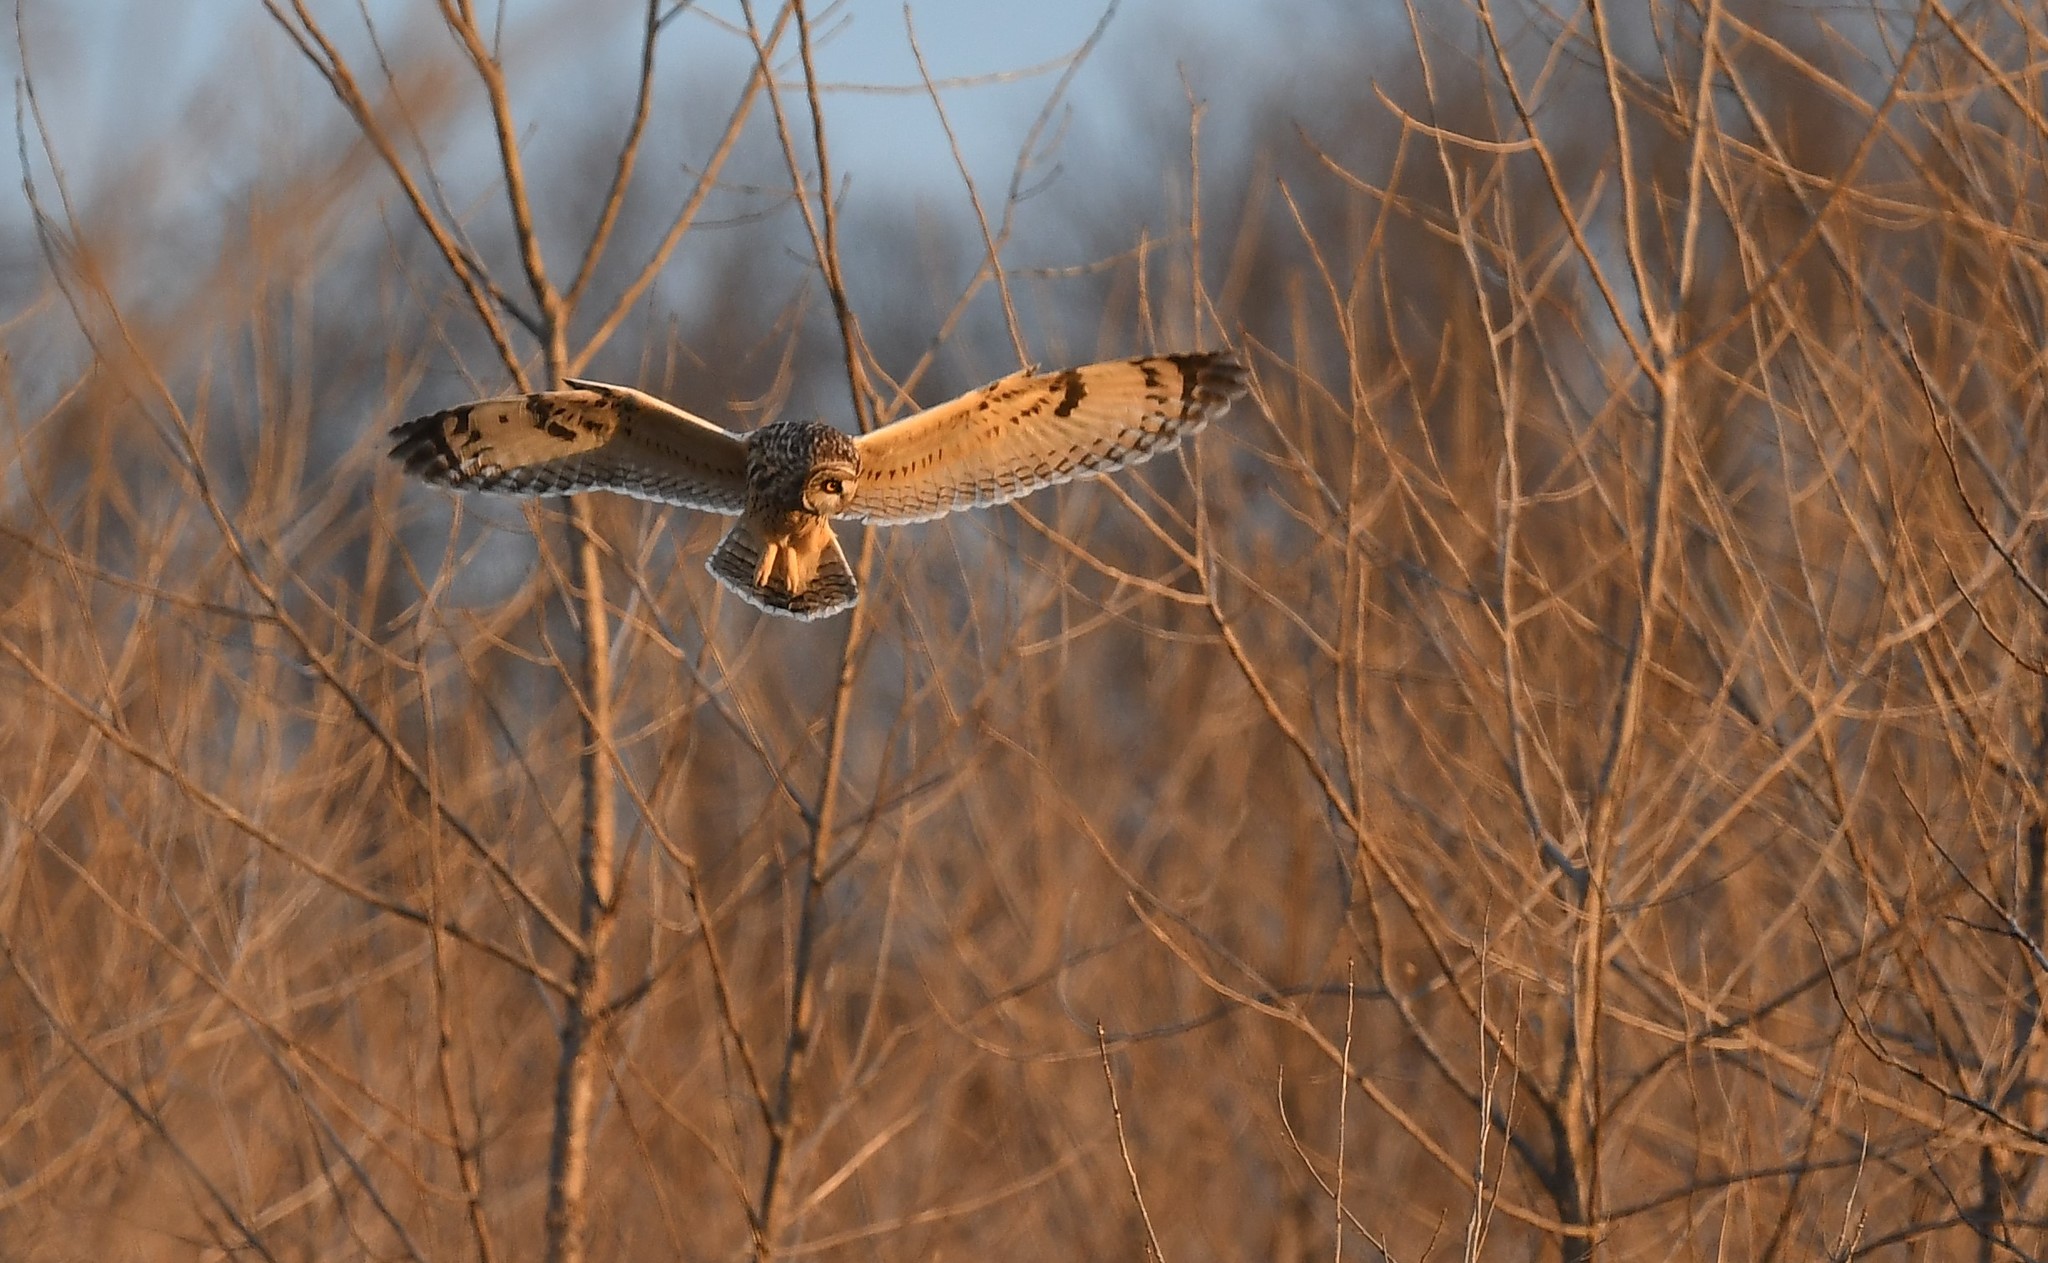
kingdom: Animalia
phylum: Chordata
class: Aves
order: Strigiformes
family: Strigidae
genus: Asio
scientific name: Asio flammeus
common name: Short-eared owl
